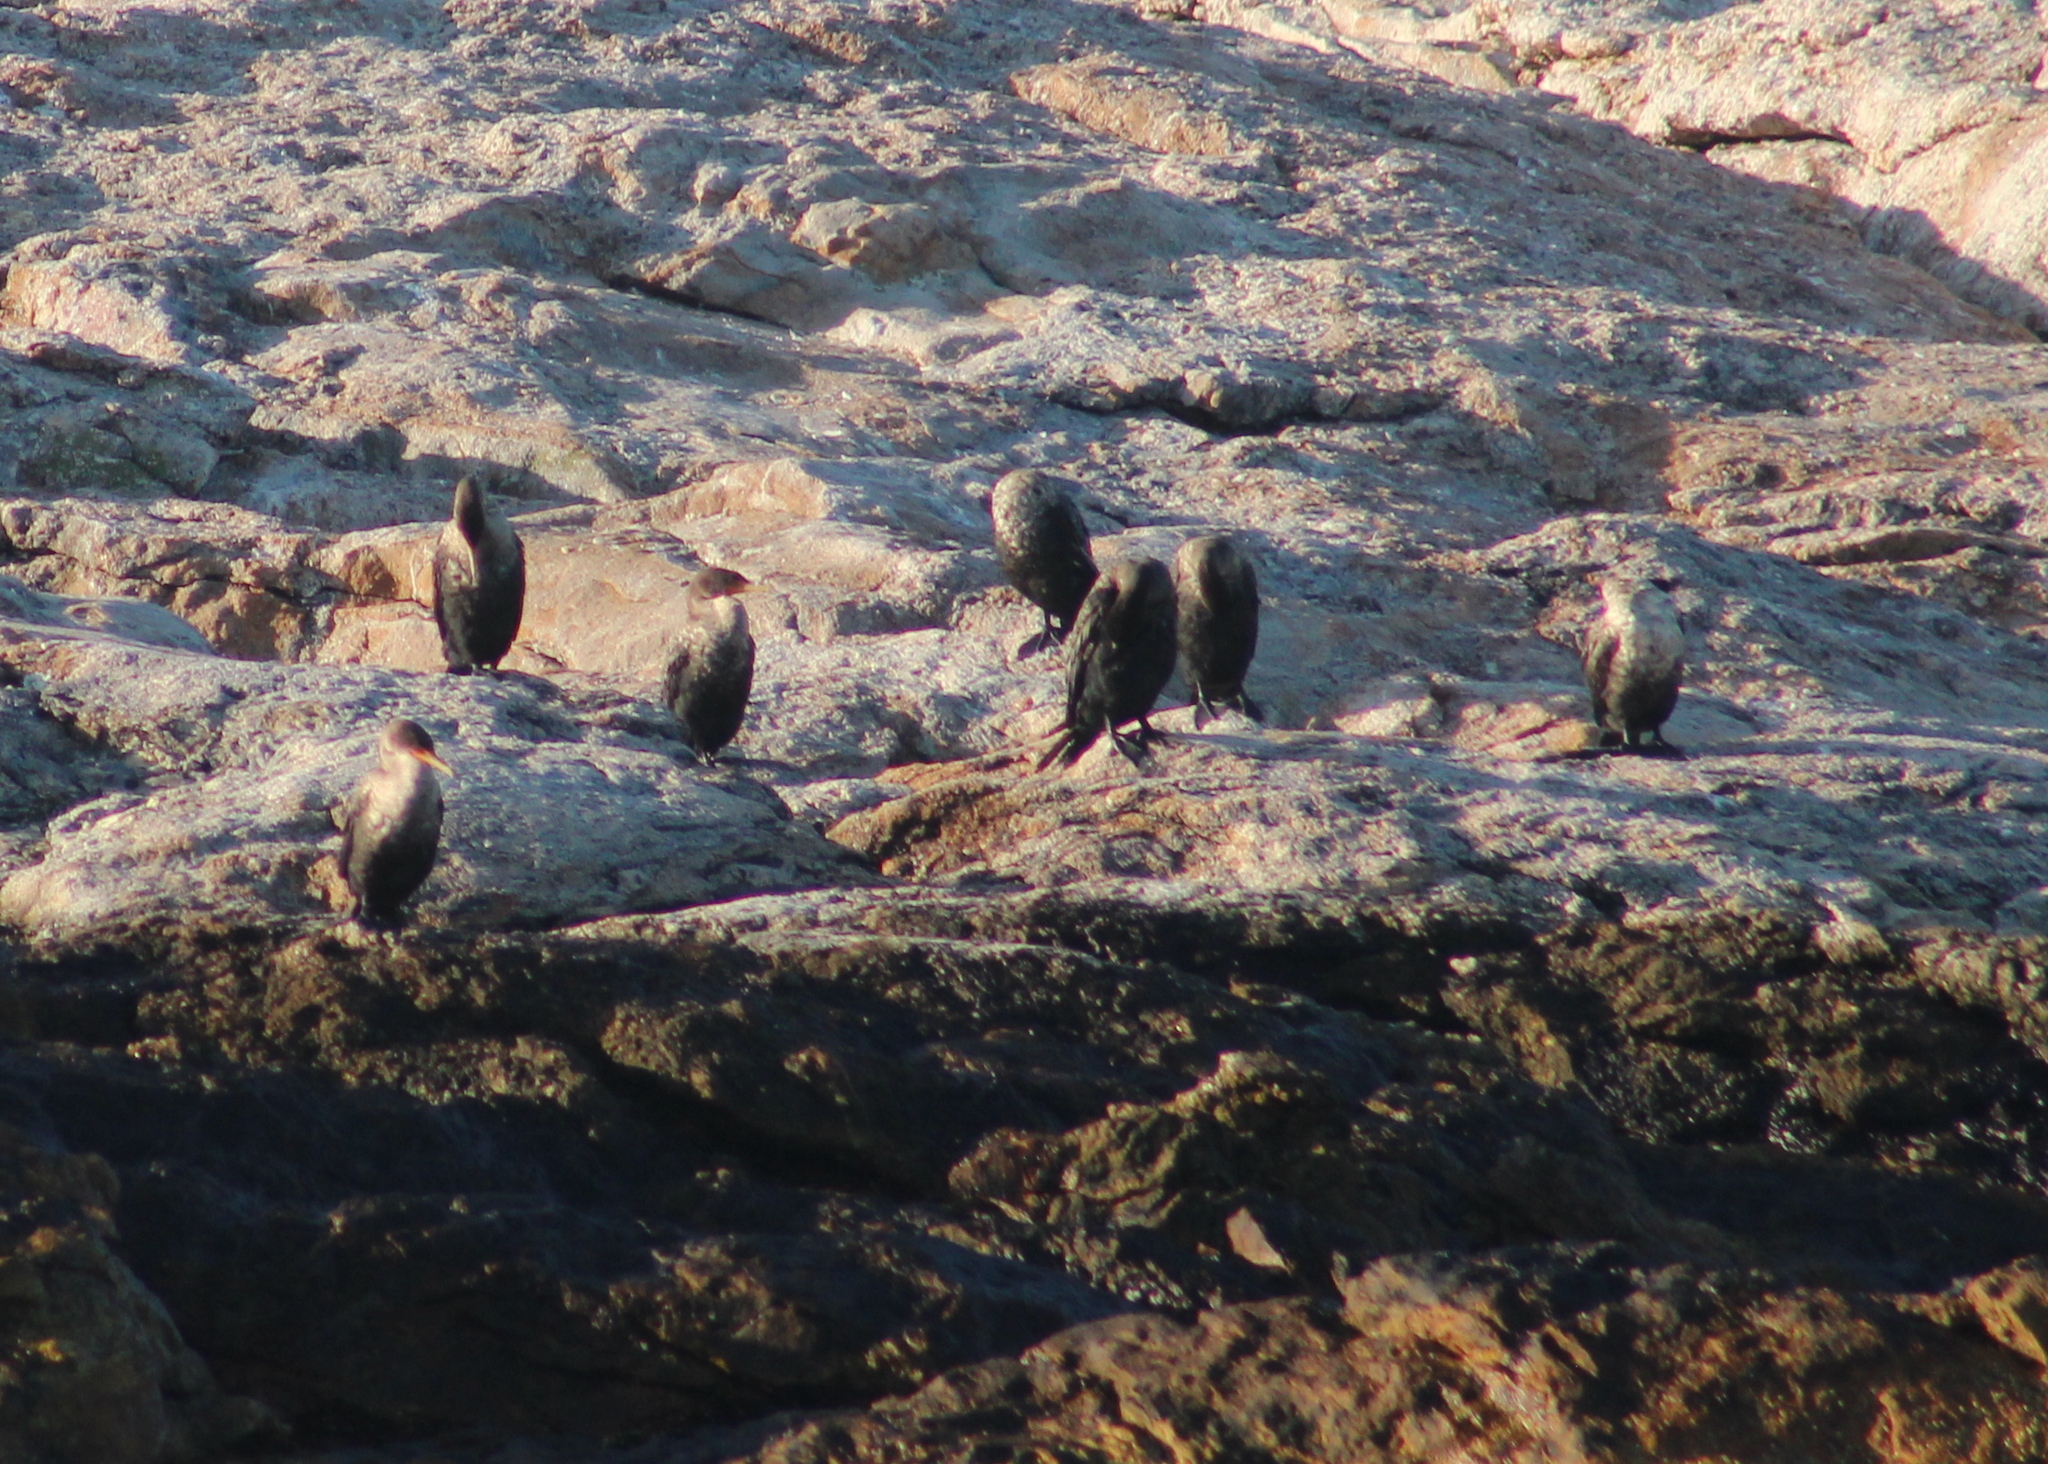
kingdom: Animalia
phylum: Chordata
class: Aves
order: Suliformes
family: Phalacrocoracidae
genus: Phalacrocorax
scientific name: Phalacrocorax auritus
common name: Double-crested cormorant
